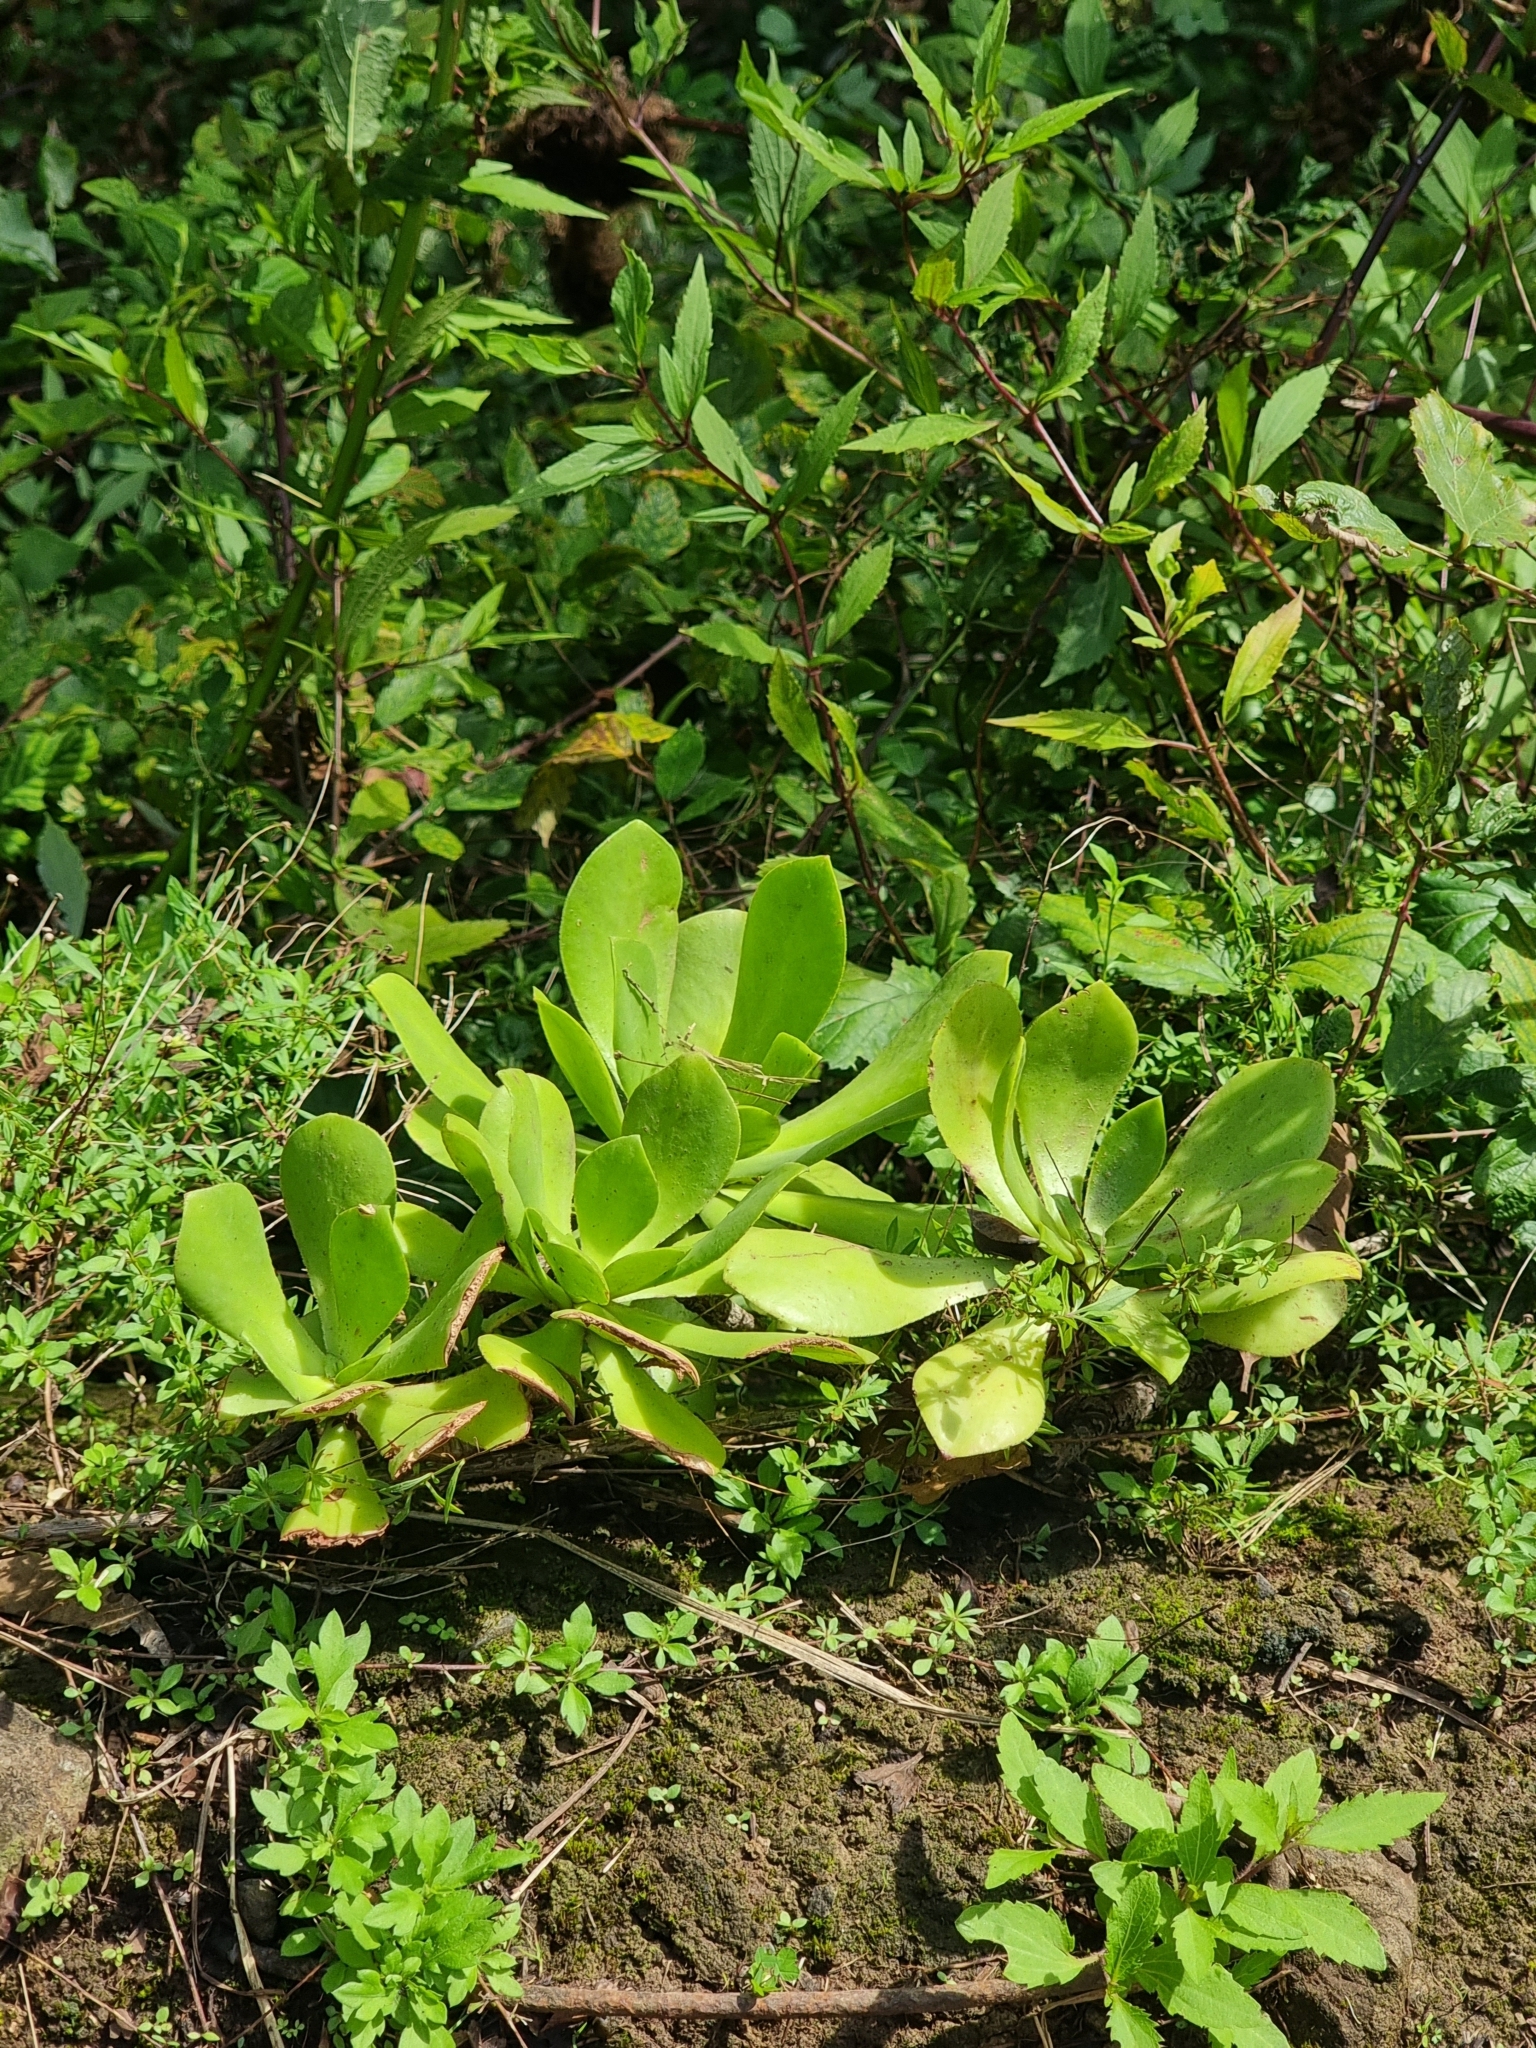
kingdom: Plantae
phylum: Tracheophyta
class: Magnoliopsida
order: Saxifragales
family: Crassulaceae
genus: Aeonium
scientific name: Aeonium glutinosum
